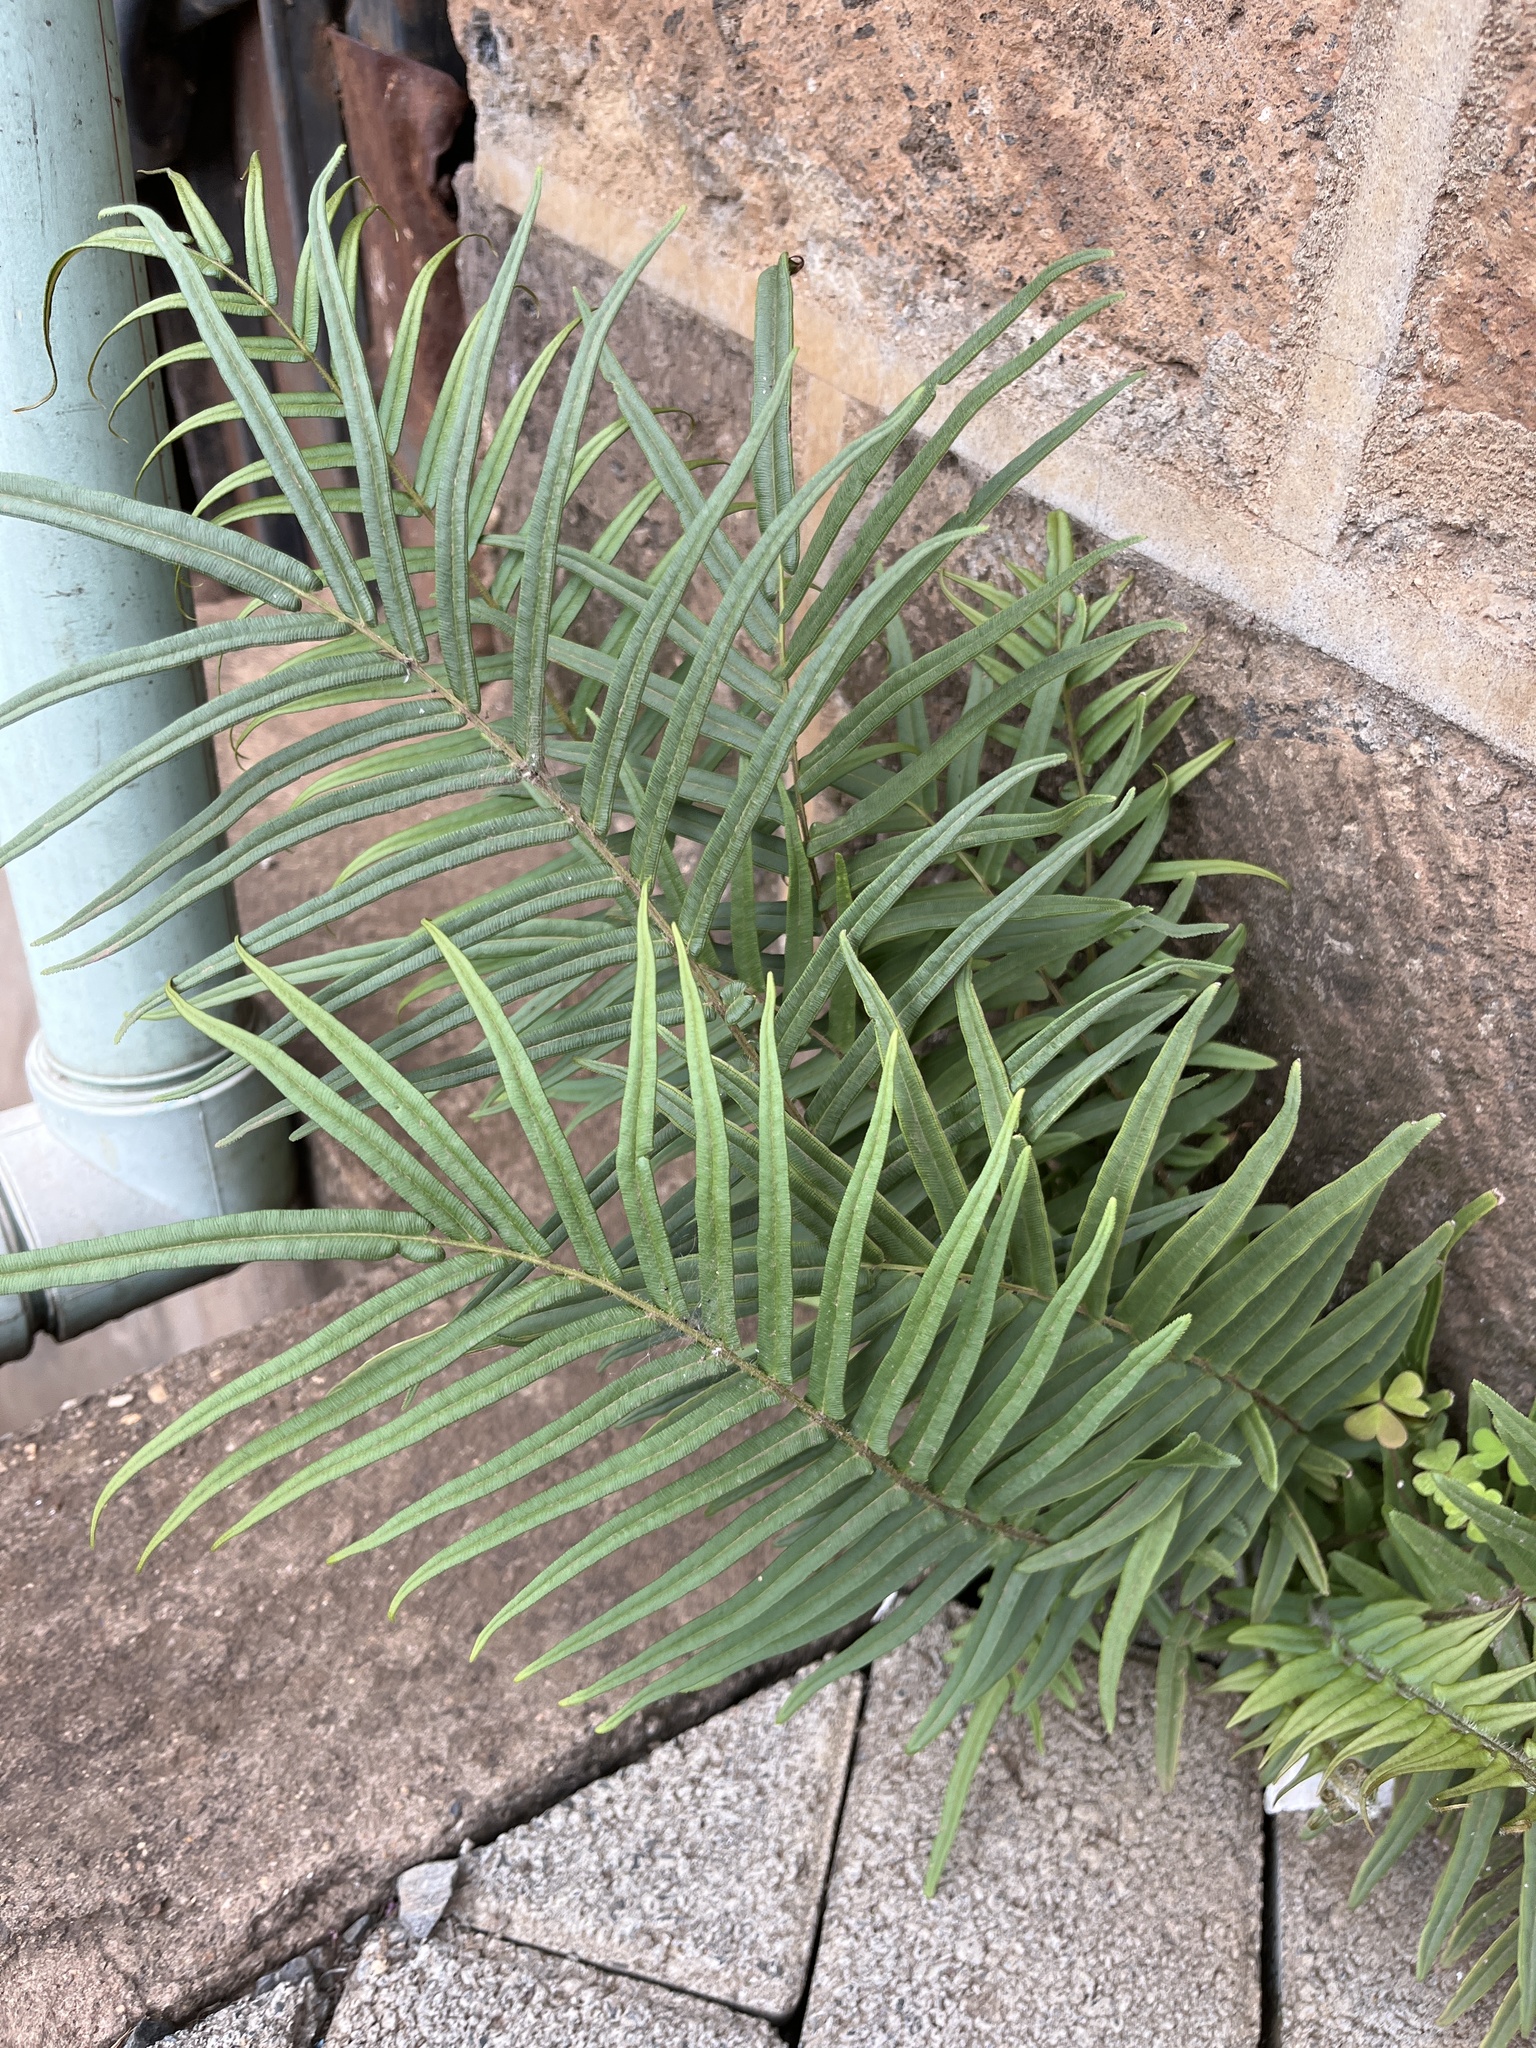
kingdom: Plantae
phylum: Tracheophyta
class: Polypodiopsida
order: Polypodiales
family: Pteridaceae
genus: Pteris
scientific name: Pteris vittata
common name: Ladder brake
